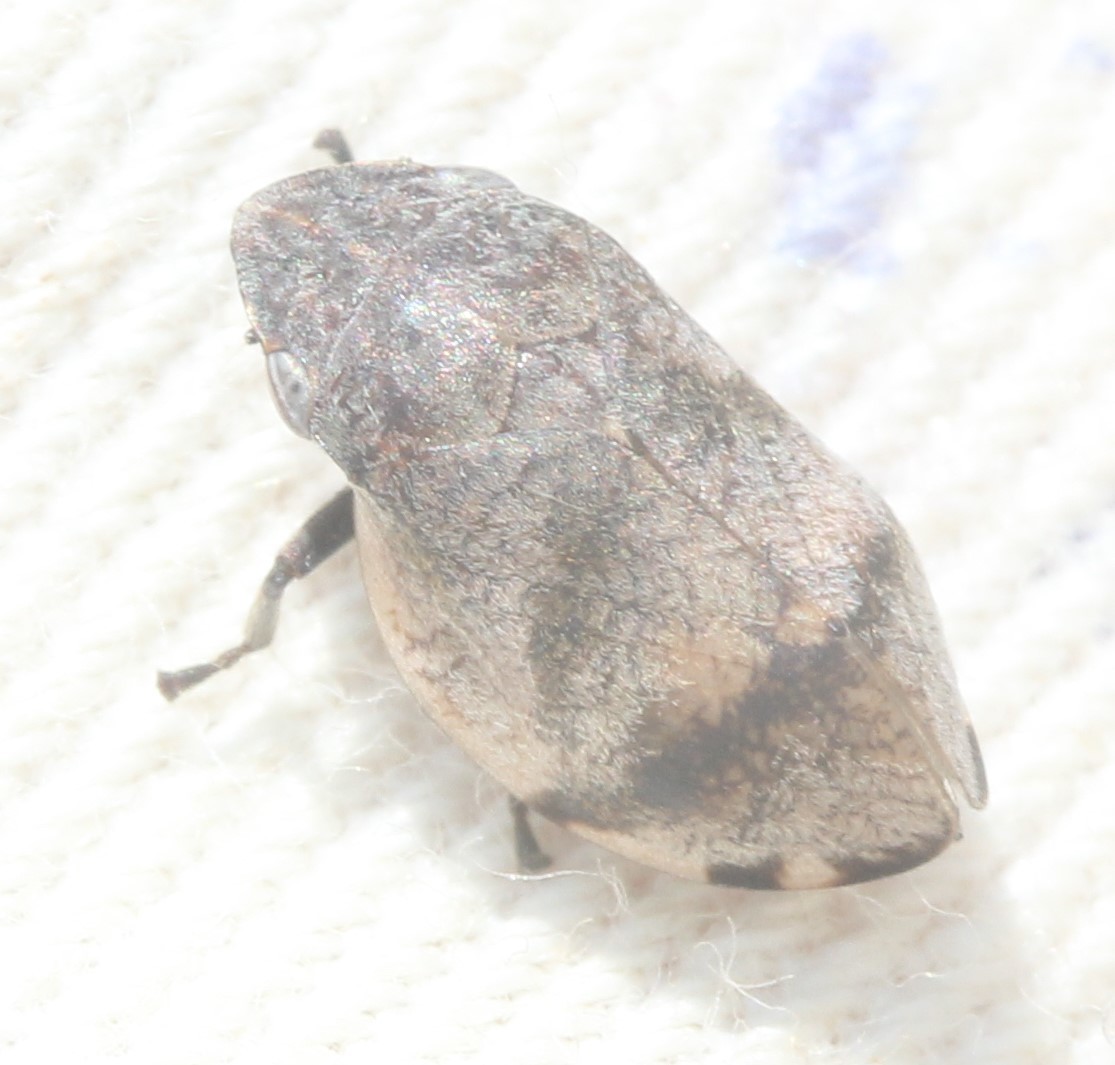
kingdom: Animalia
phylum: Arthropoda
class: Insecta
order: Hemiptera
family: Aphrophoridae
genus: Lepyronia
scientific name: Lepyronia gibbosa
